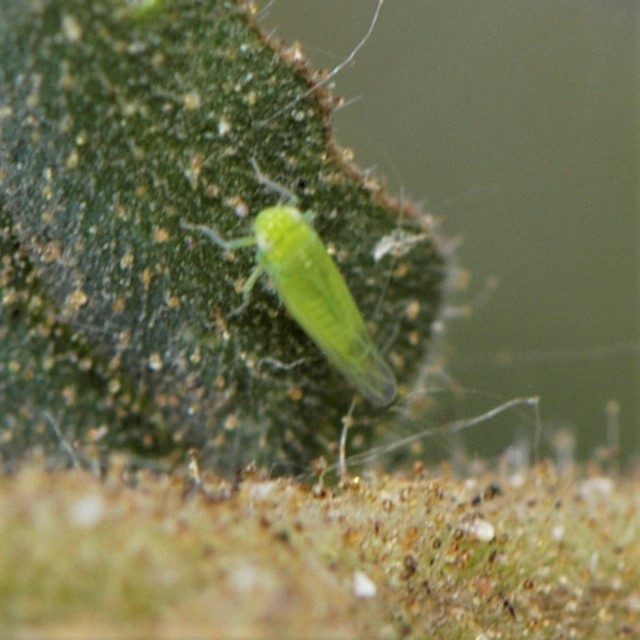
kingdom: Animalia
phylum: Arthropoda
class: Insecta
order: Hemiptera
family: Cicadellidae
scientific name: Cicadellidae
